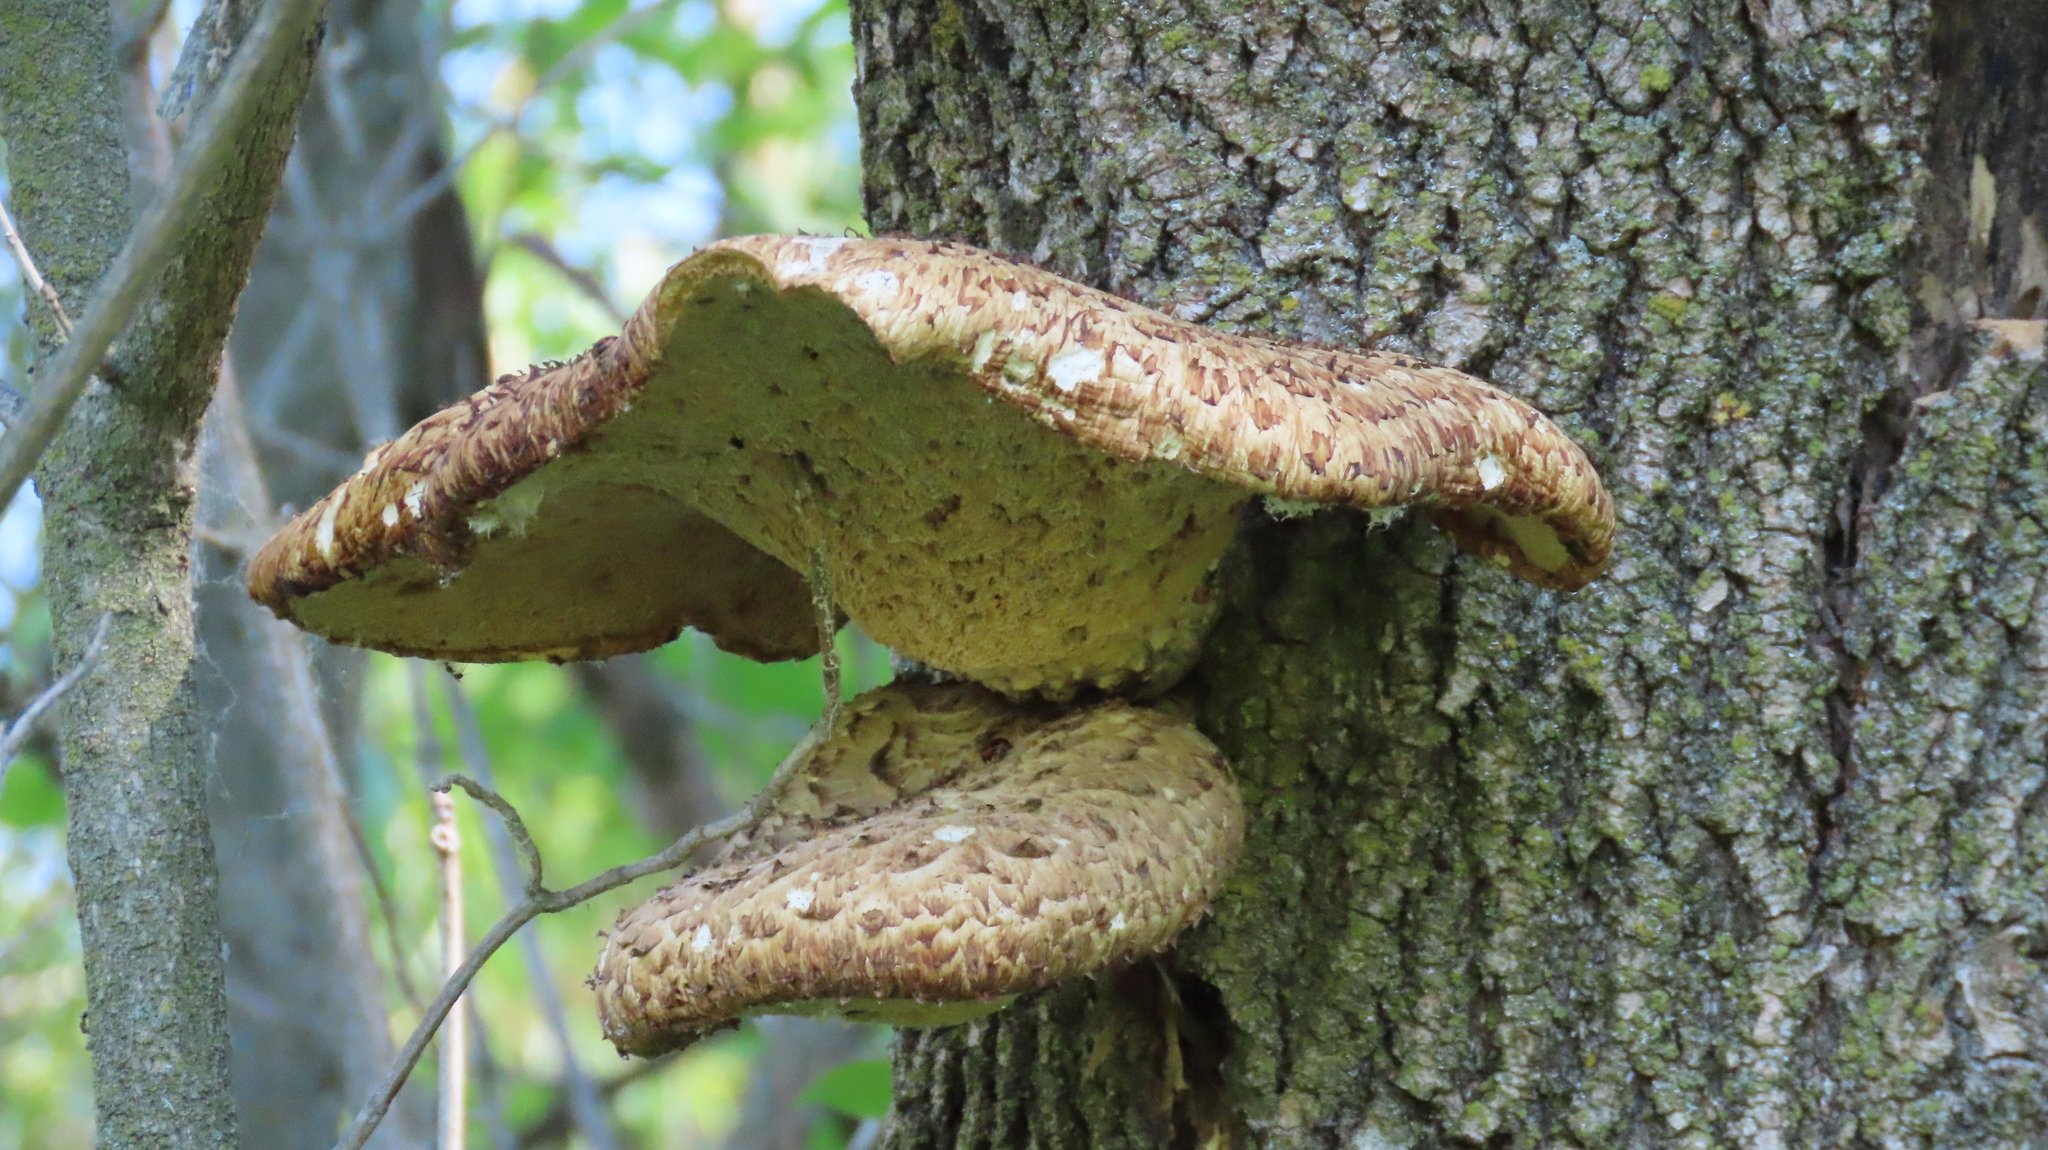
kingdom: Fungi
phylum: Basidiomycota
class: Agaricomycetes
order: Polyporales
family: Polyporaceae
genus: Cerioporus
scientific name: Cerioporus squamosus
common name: Dryad's saddle
